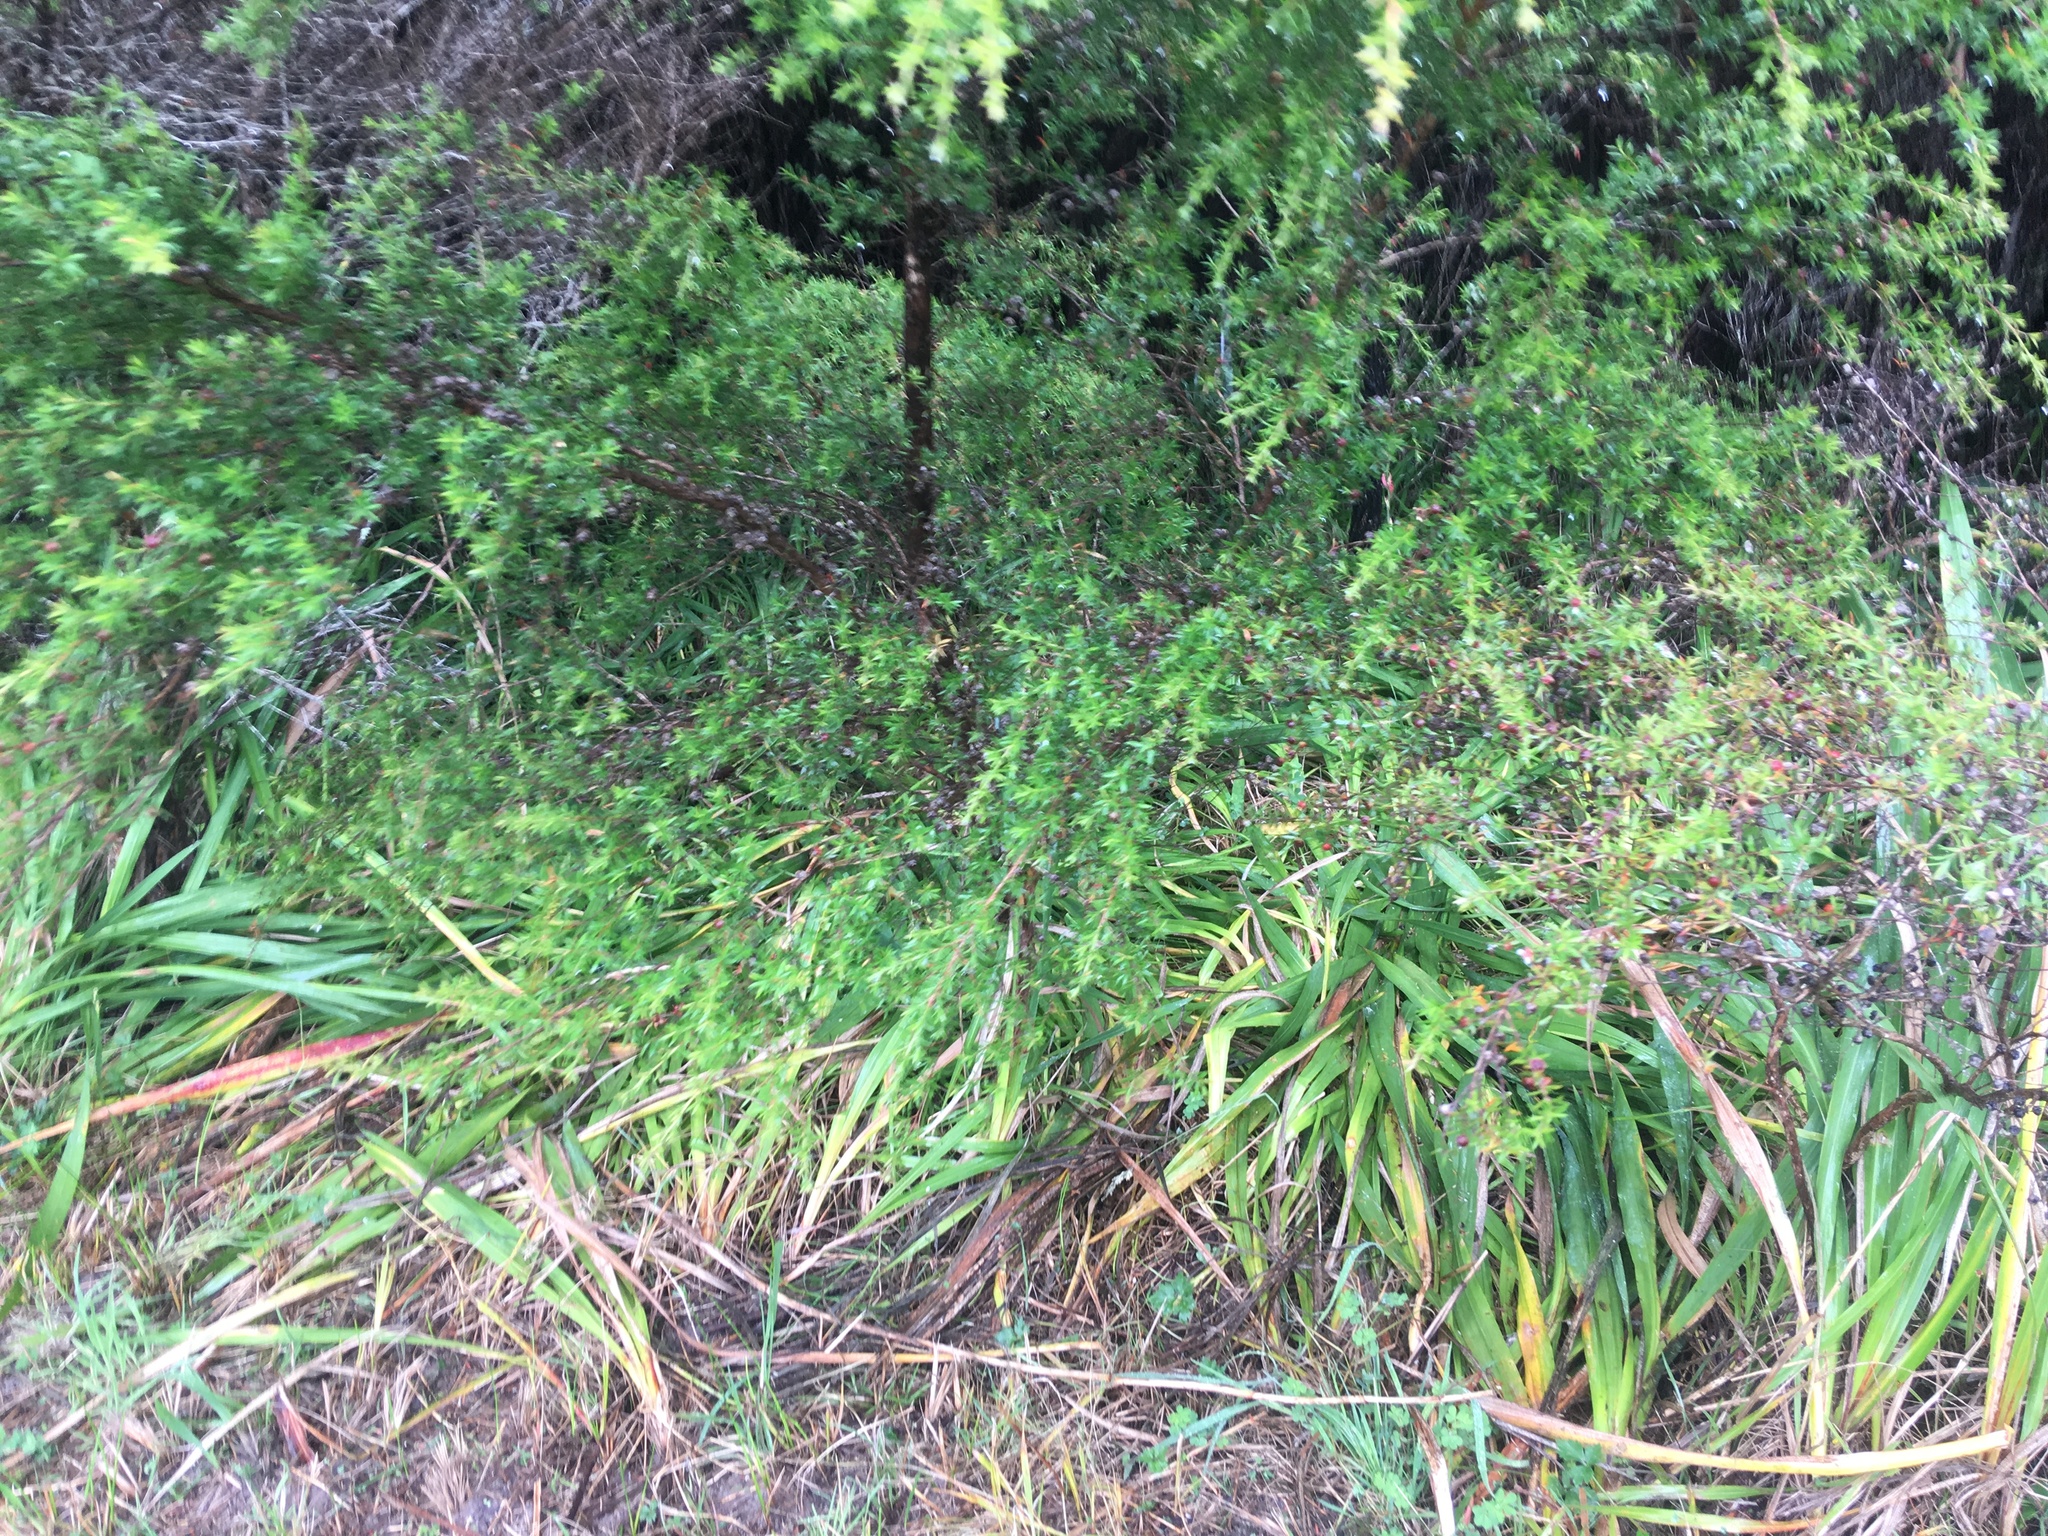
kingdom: Plantae
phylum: Tracheophyta
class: Magnoliopsida
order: Myrtales
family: Myrtaceae
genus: Leptospermum
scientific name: Leptospermum scoparium
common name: Broom tea-tree
